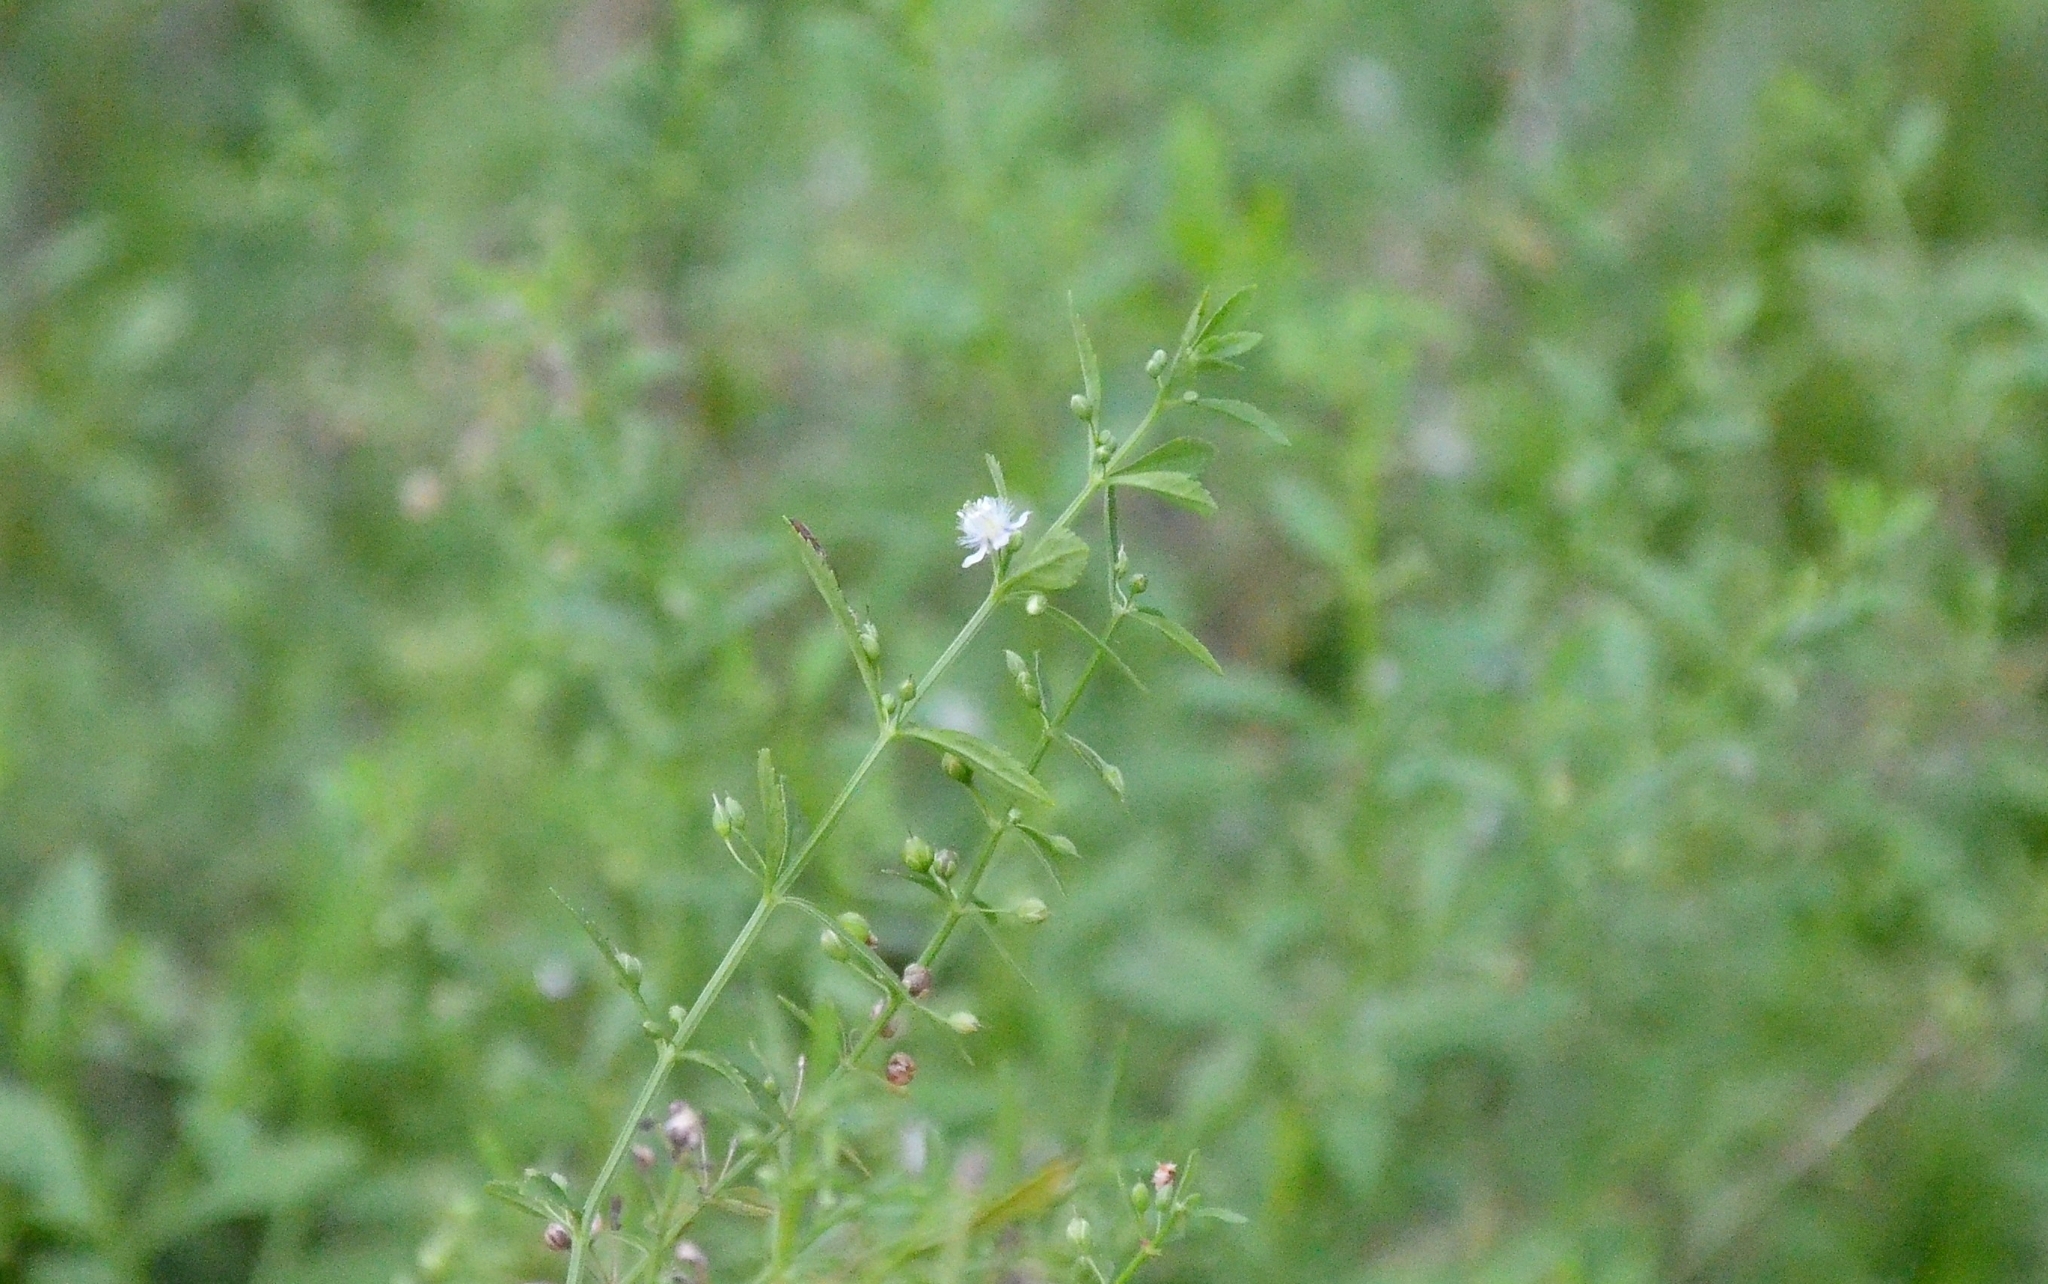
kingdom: Plantae
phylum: Tracheophyta
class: Magnoliopsida
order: Lamiales
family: Plantaginaceae
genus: Scoparia
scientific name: Scoparia dulcis
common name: Scoparia-weed
